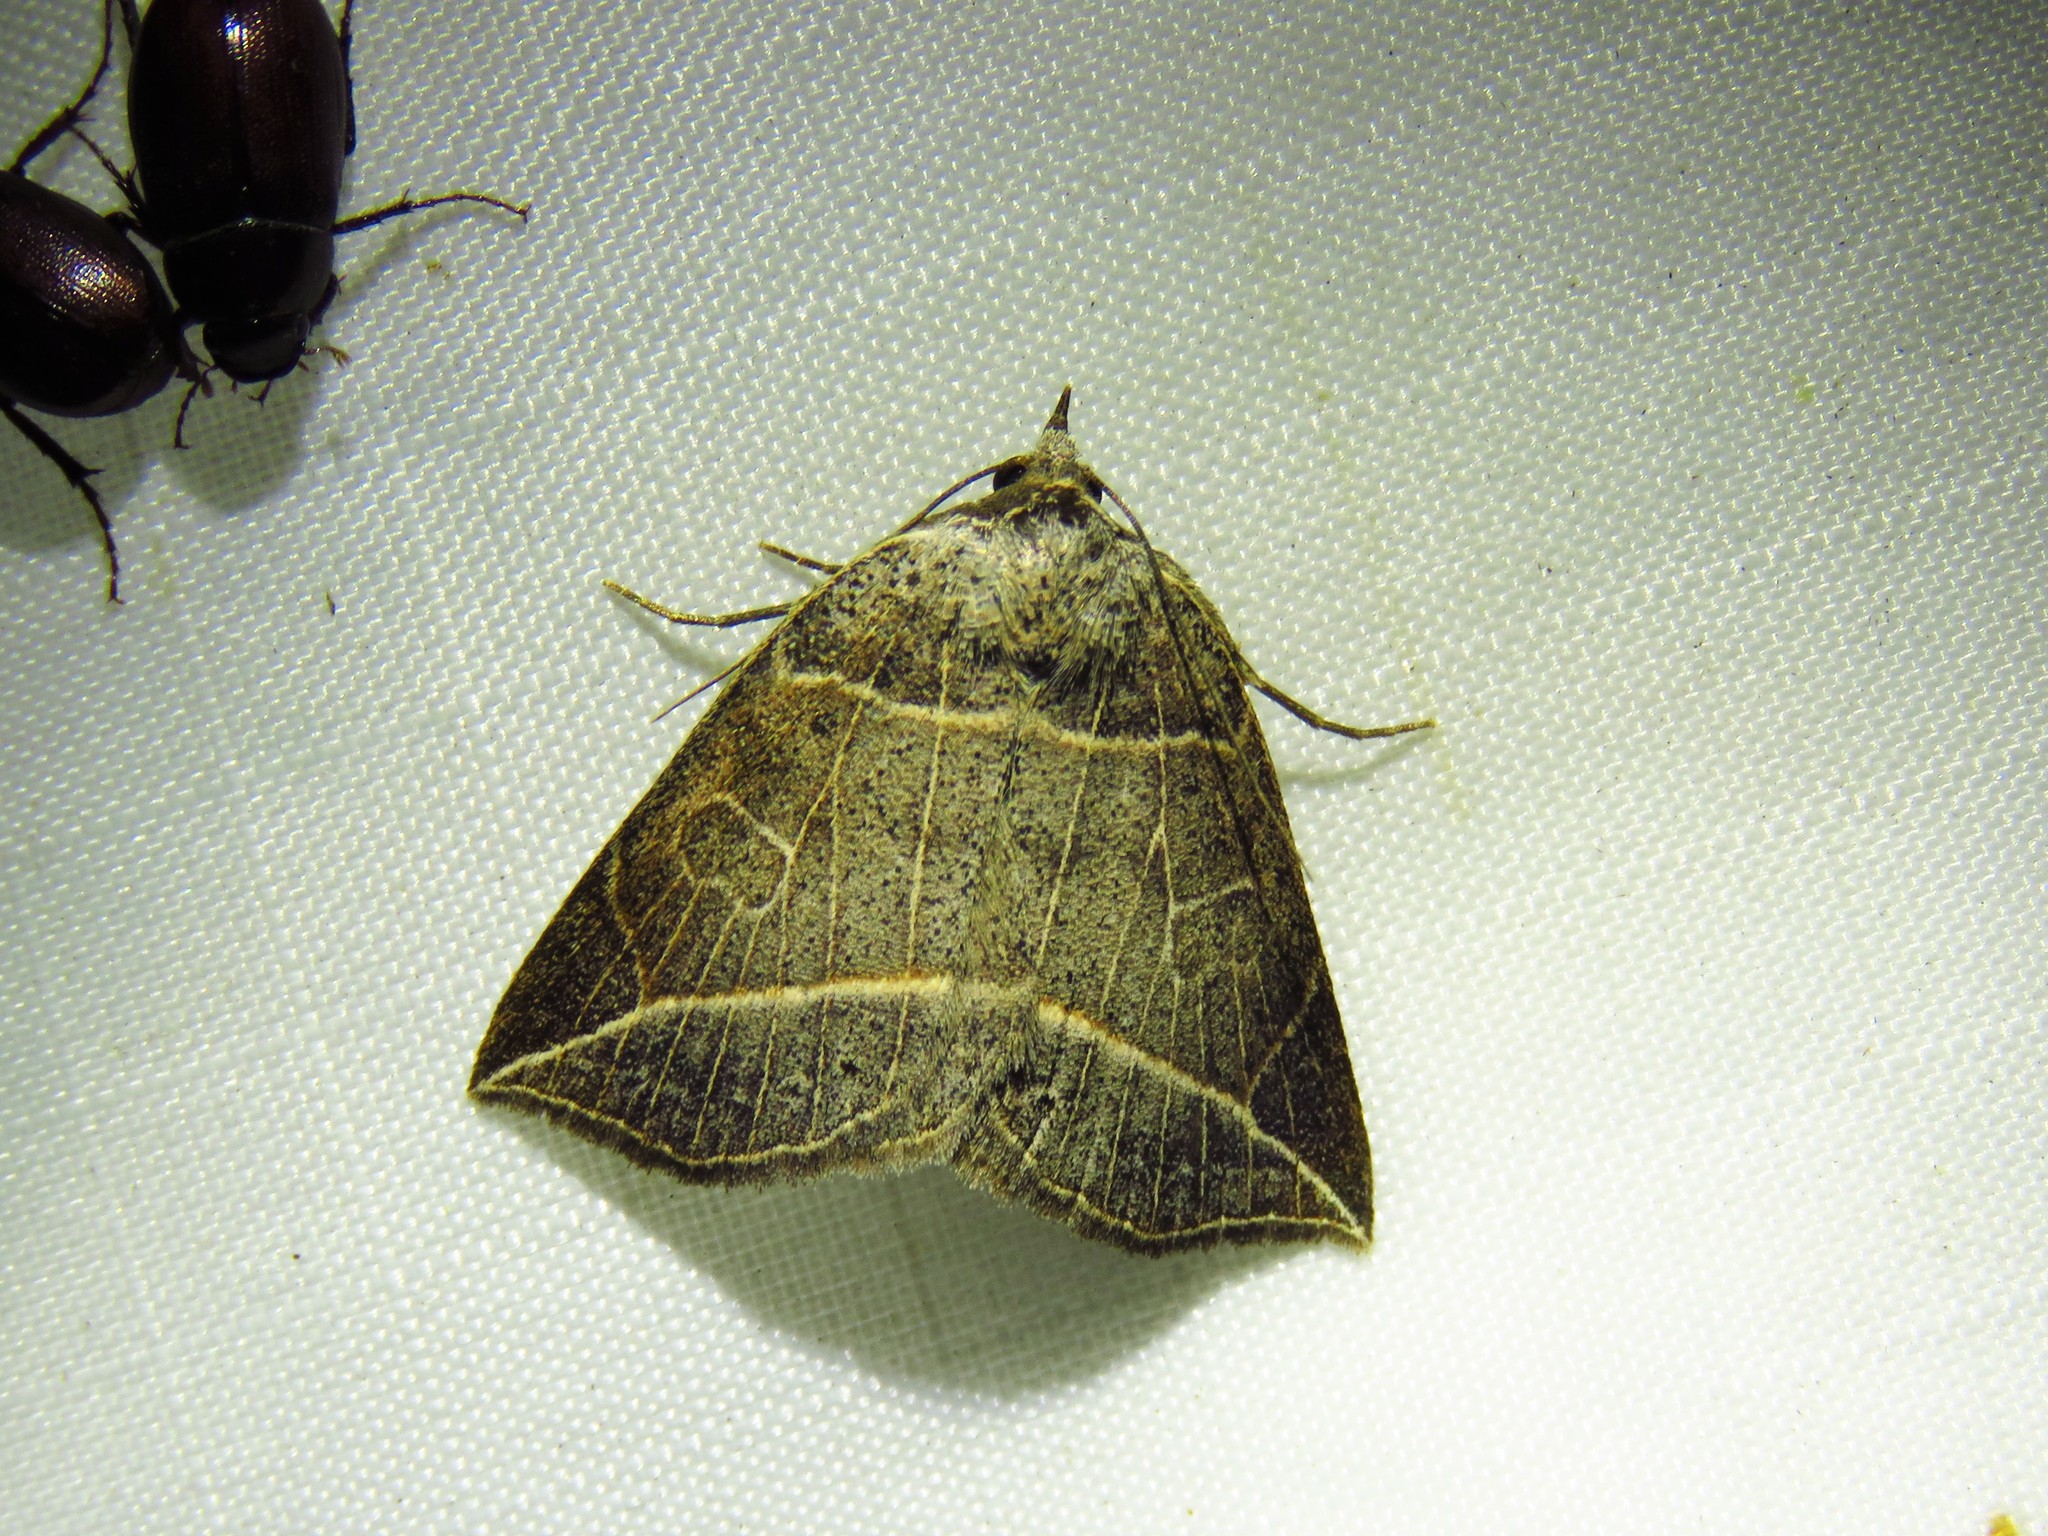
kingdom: Animalia
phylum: Arthropoda
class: Insecta
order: Lepidoptera
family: Erebidae
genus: Isogona
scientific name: Isogona tenuis
